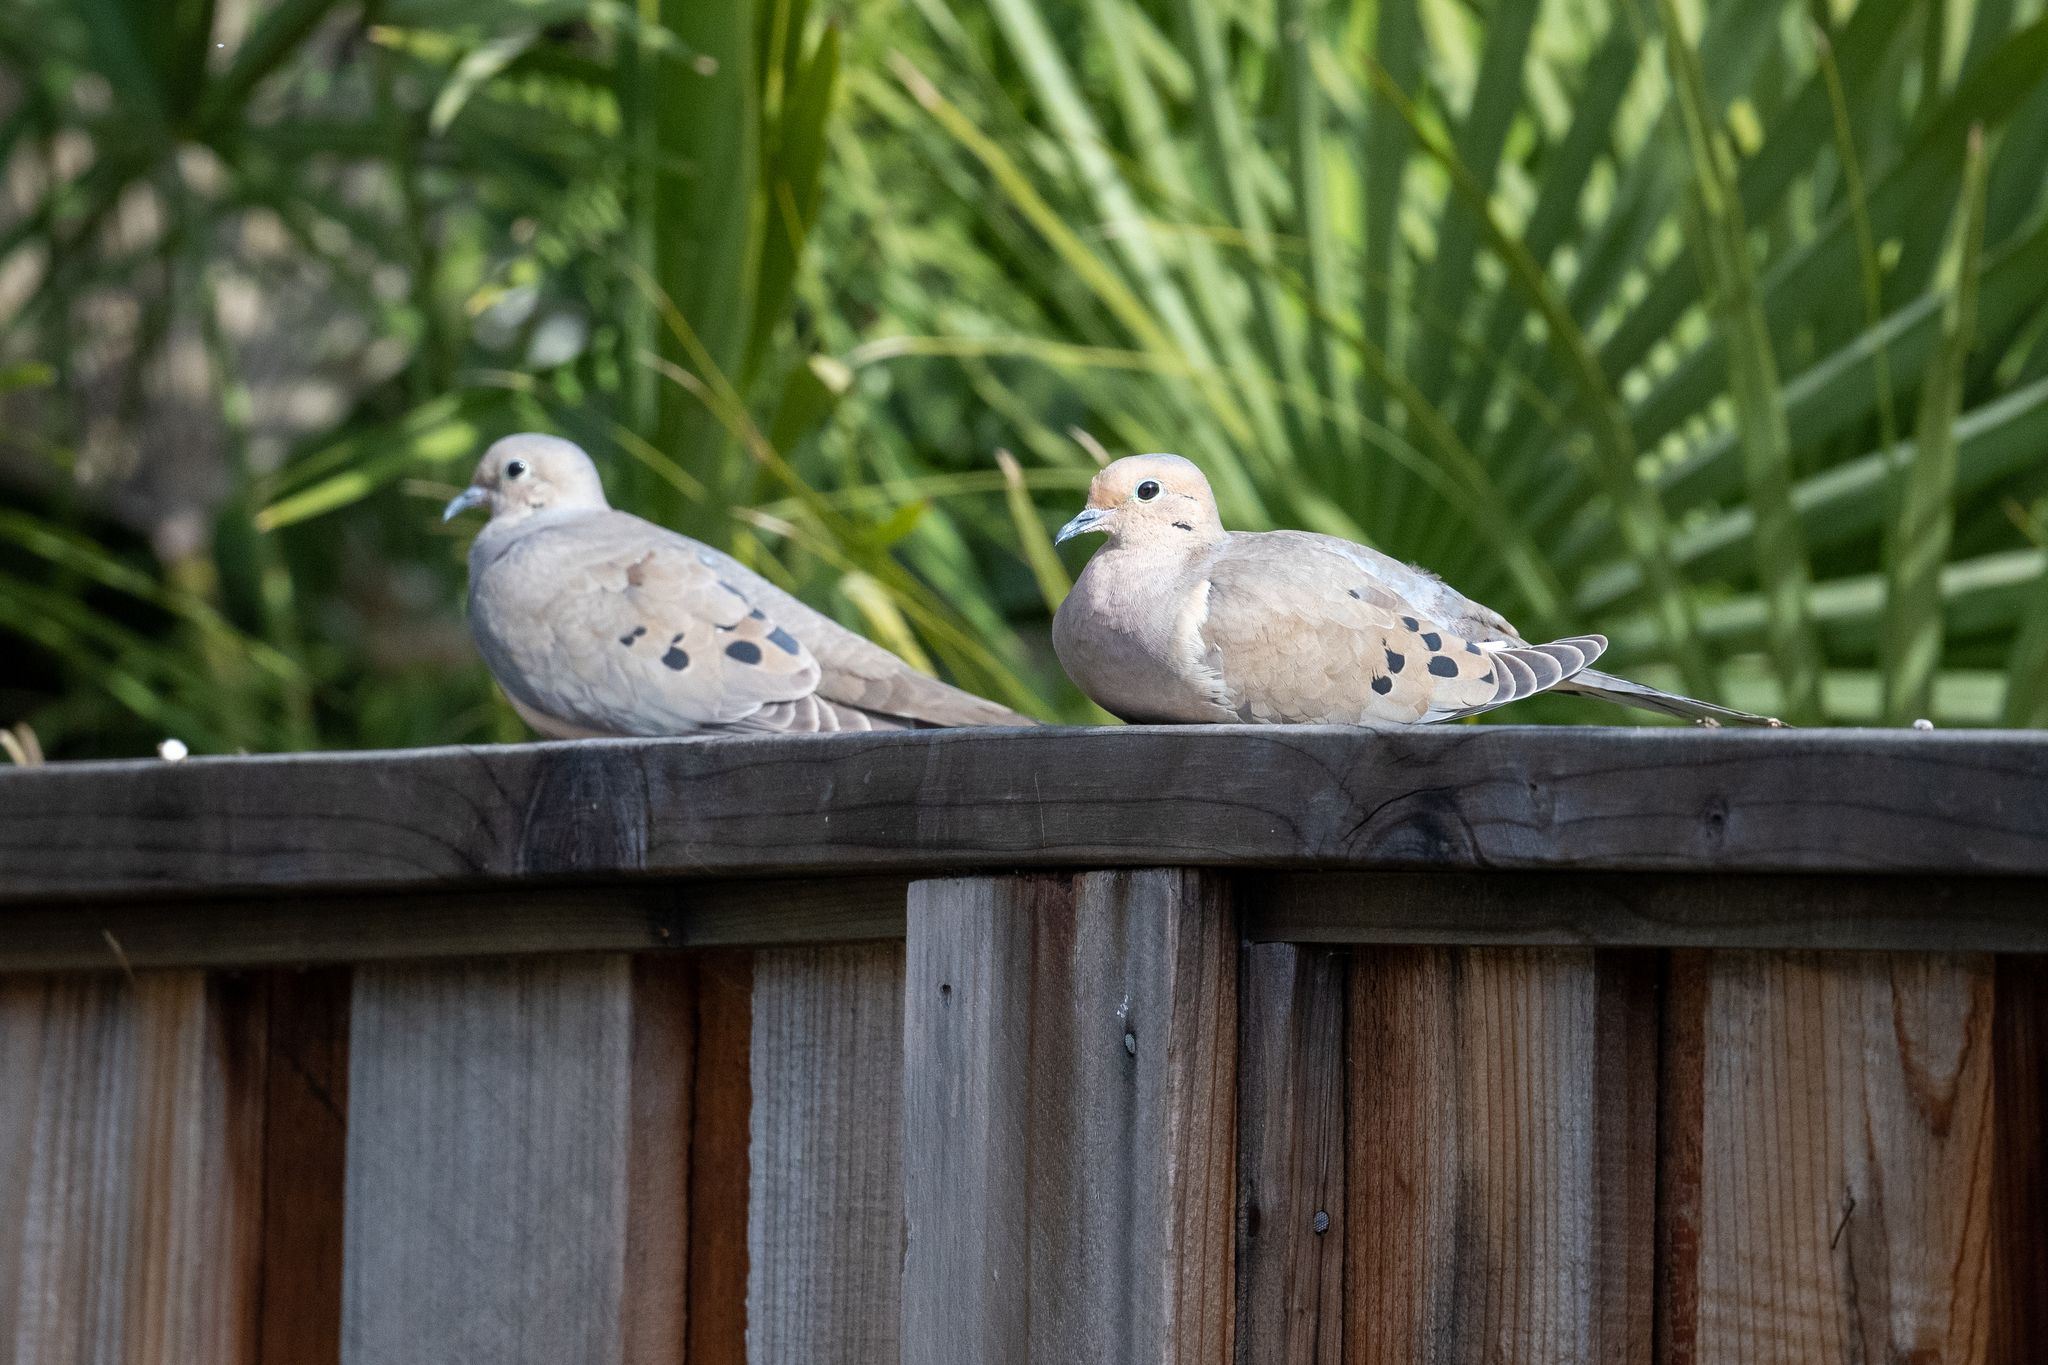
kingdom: Animalia
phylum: Chordata
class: Aves
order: Columbiformes
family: Columbidae
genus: Zenaida
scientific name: Zenaida macroura
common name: Mourning dove
